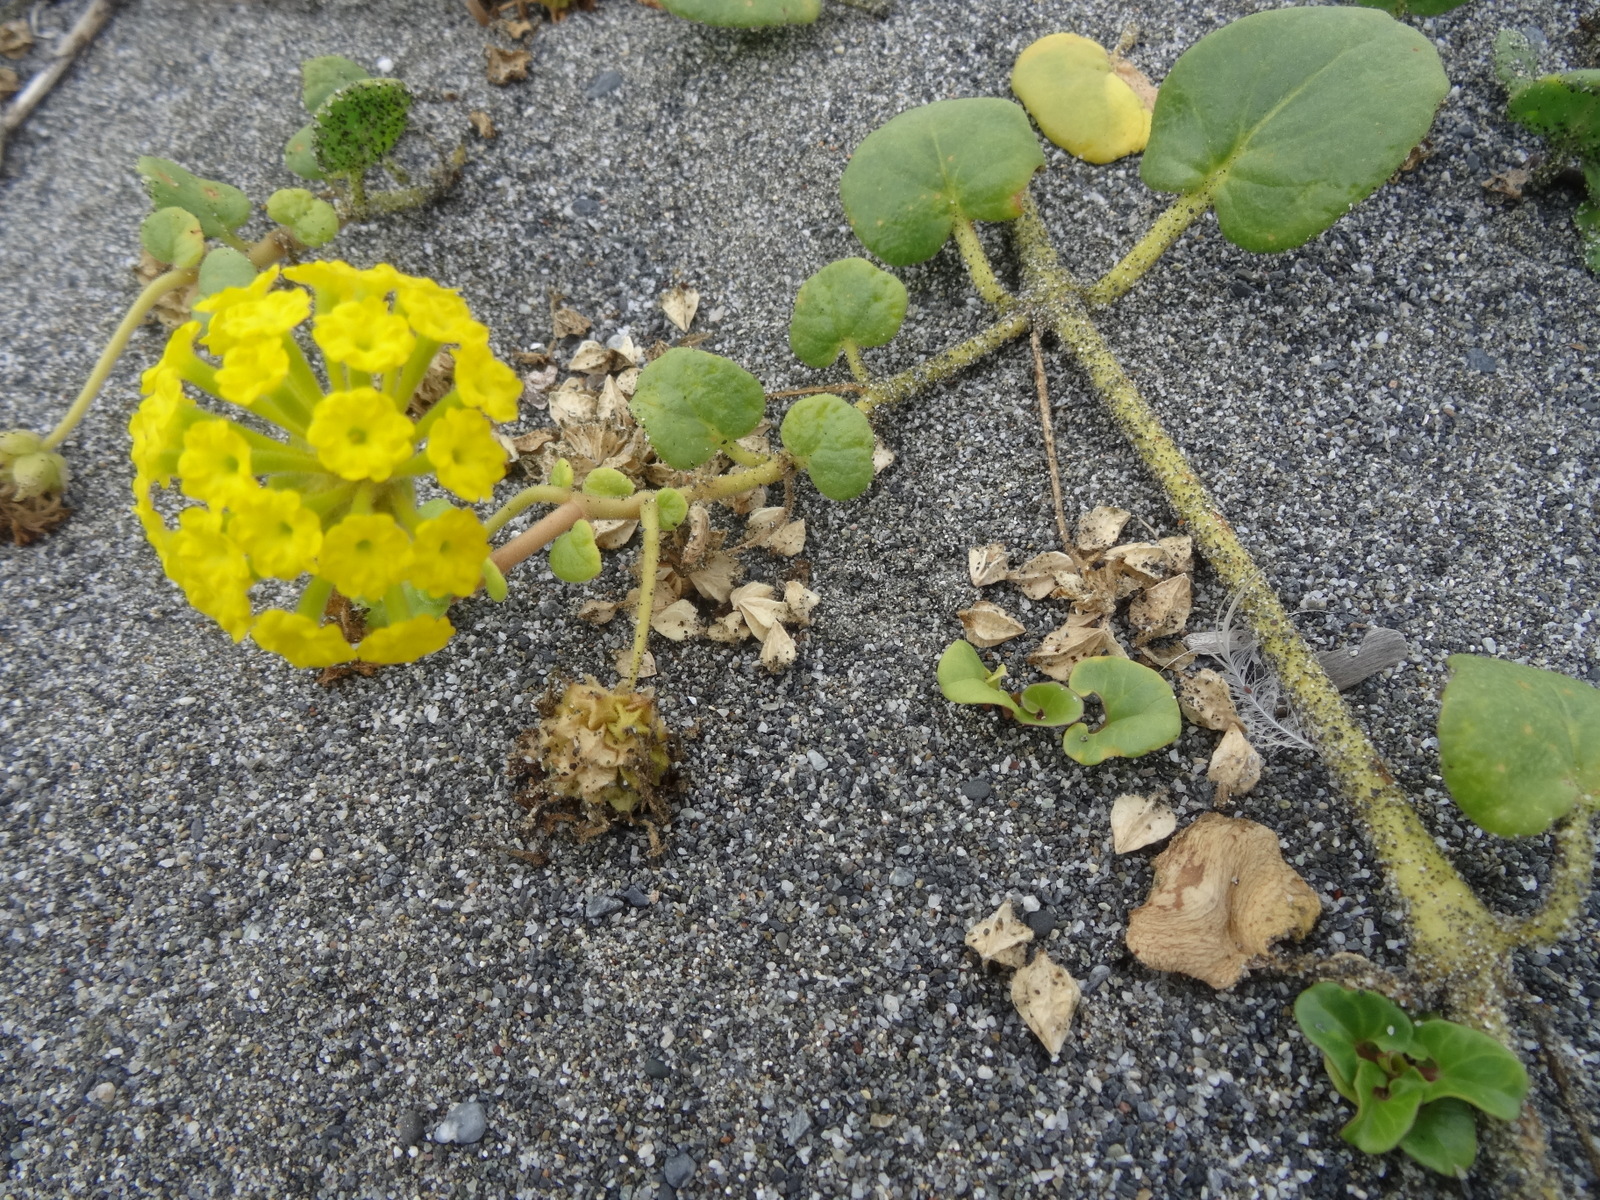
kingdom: Plantae
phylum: Tracheophyta
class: Magnoliopsida
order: Caryophyllales
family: Nyctaginaceae
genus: Abronia
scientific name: Abronia latifolia
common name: Yellow sand-verbena
